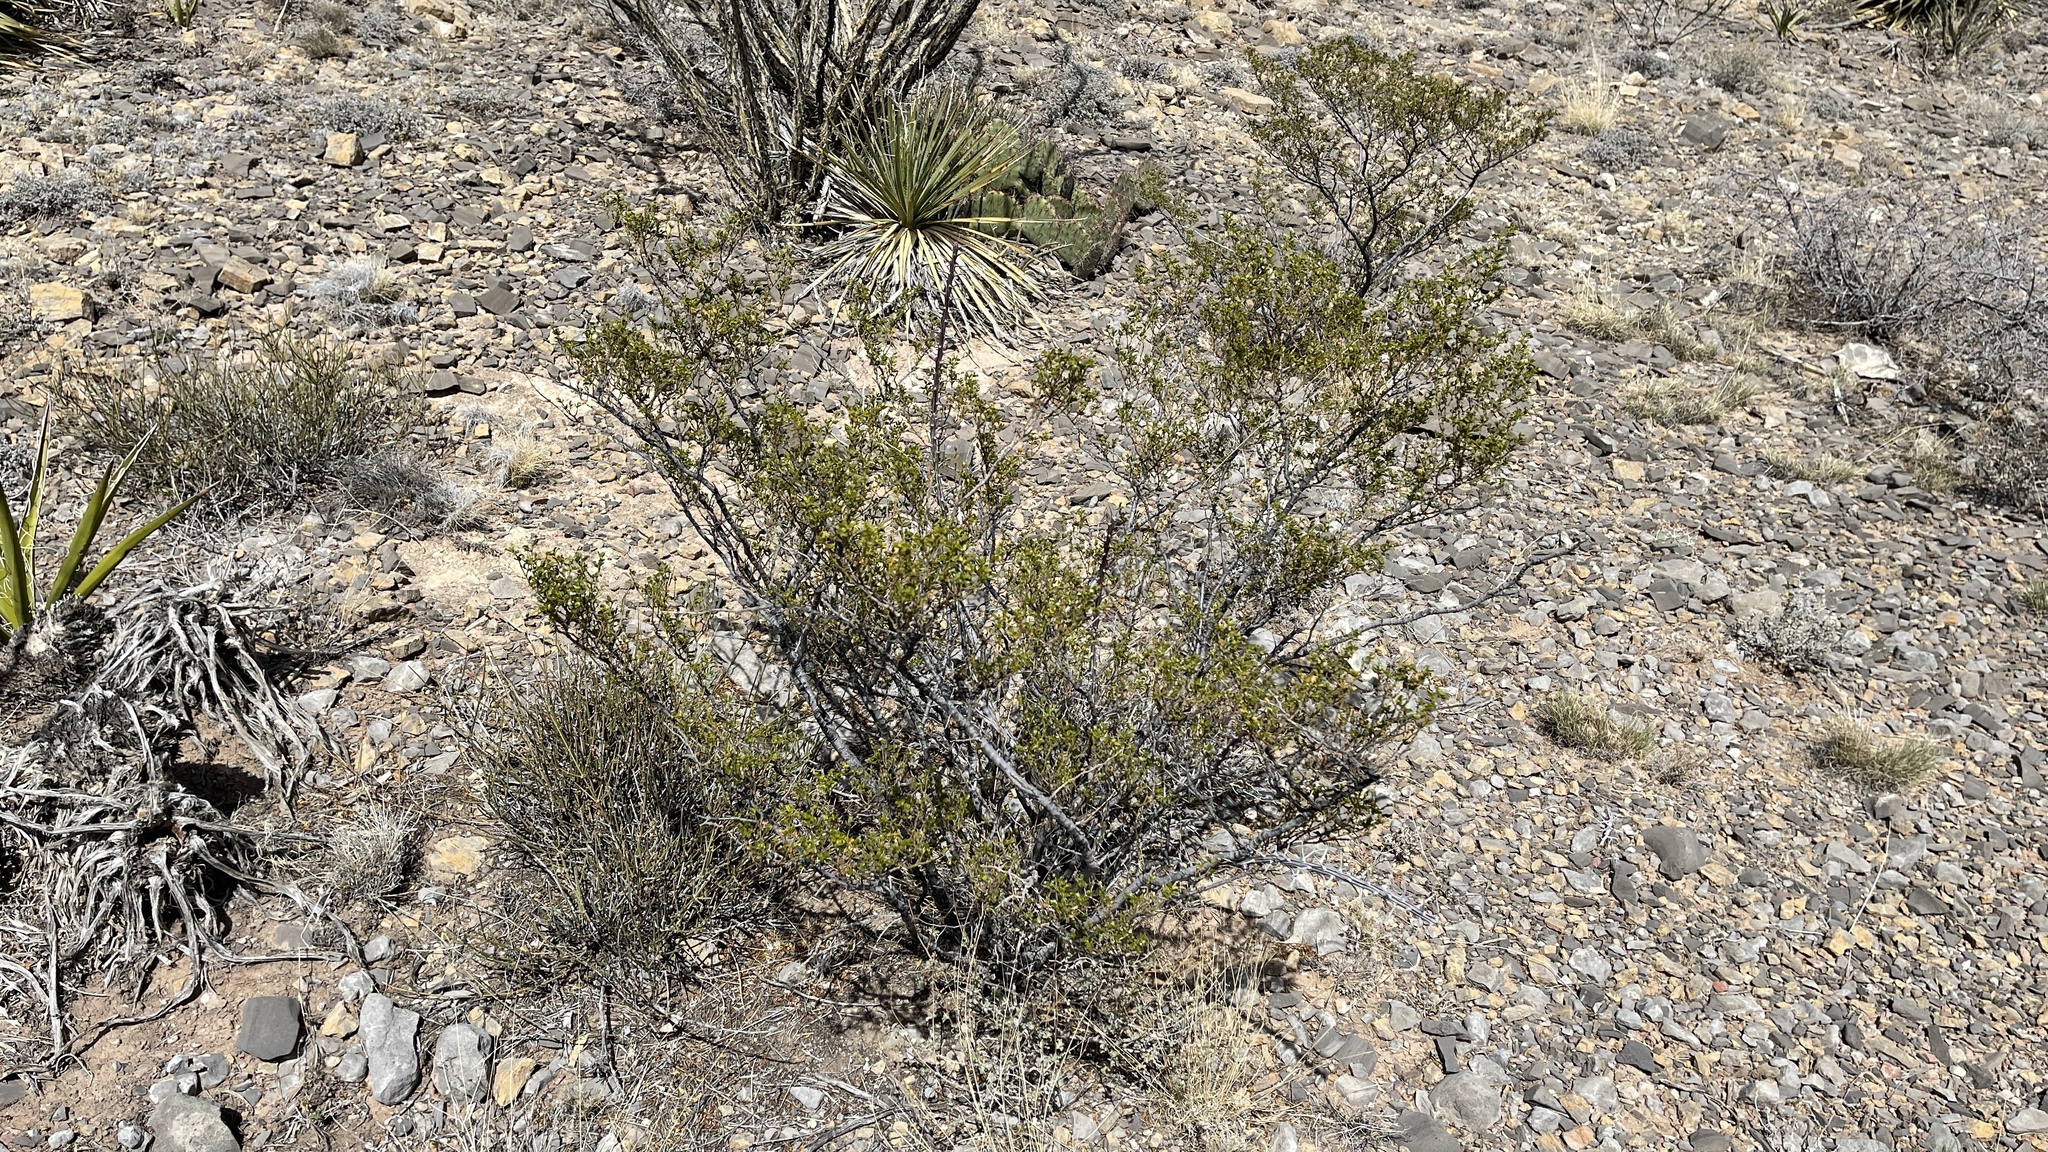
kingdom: Plantae
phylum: Tracheophyta
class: Magnoliopsida
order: Zygophyllales
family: Zygophyllaceae
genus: Larrea
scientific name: Larrea tridentata
